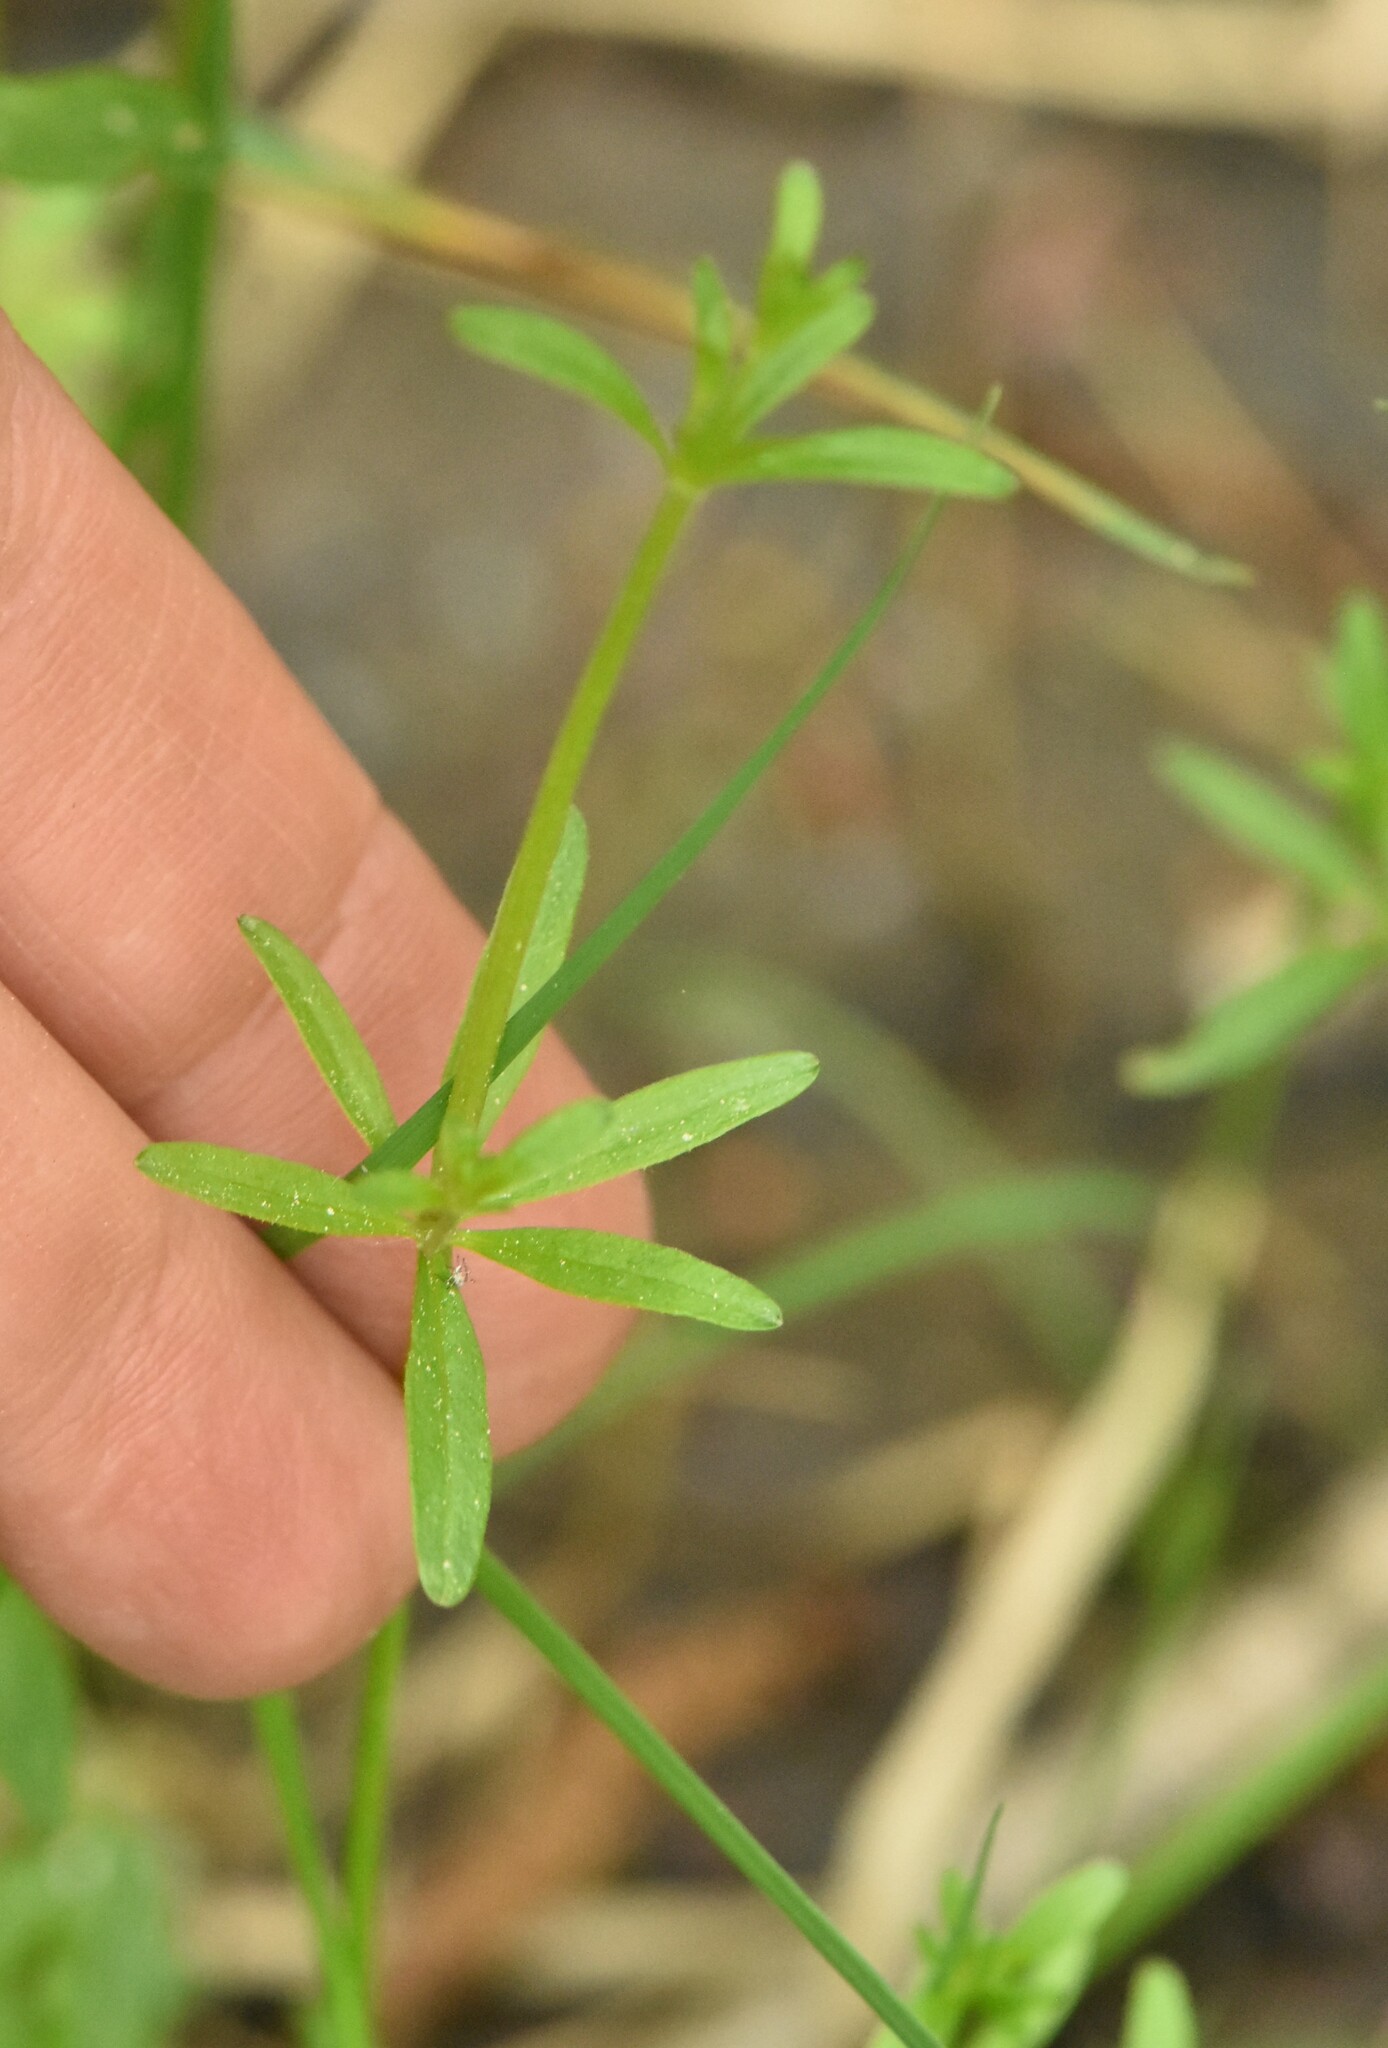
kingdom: Plantae
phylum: Tracheophyta
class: Magnoliopsida
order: Gentianales
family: Rubiaceae
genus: Galium
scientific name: Galium palustre
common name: Common marsh-bedstraw
